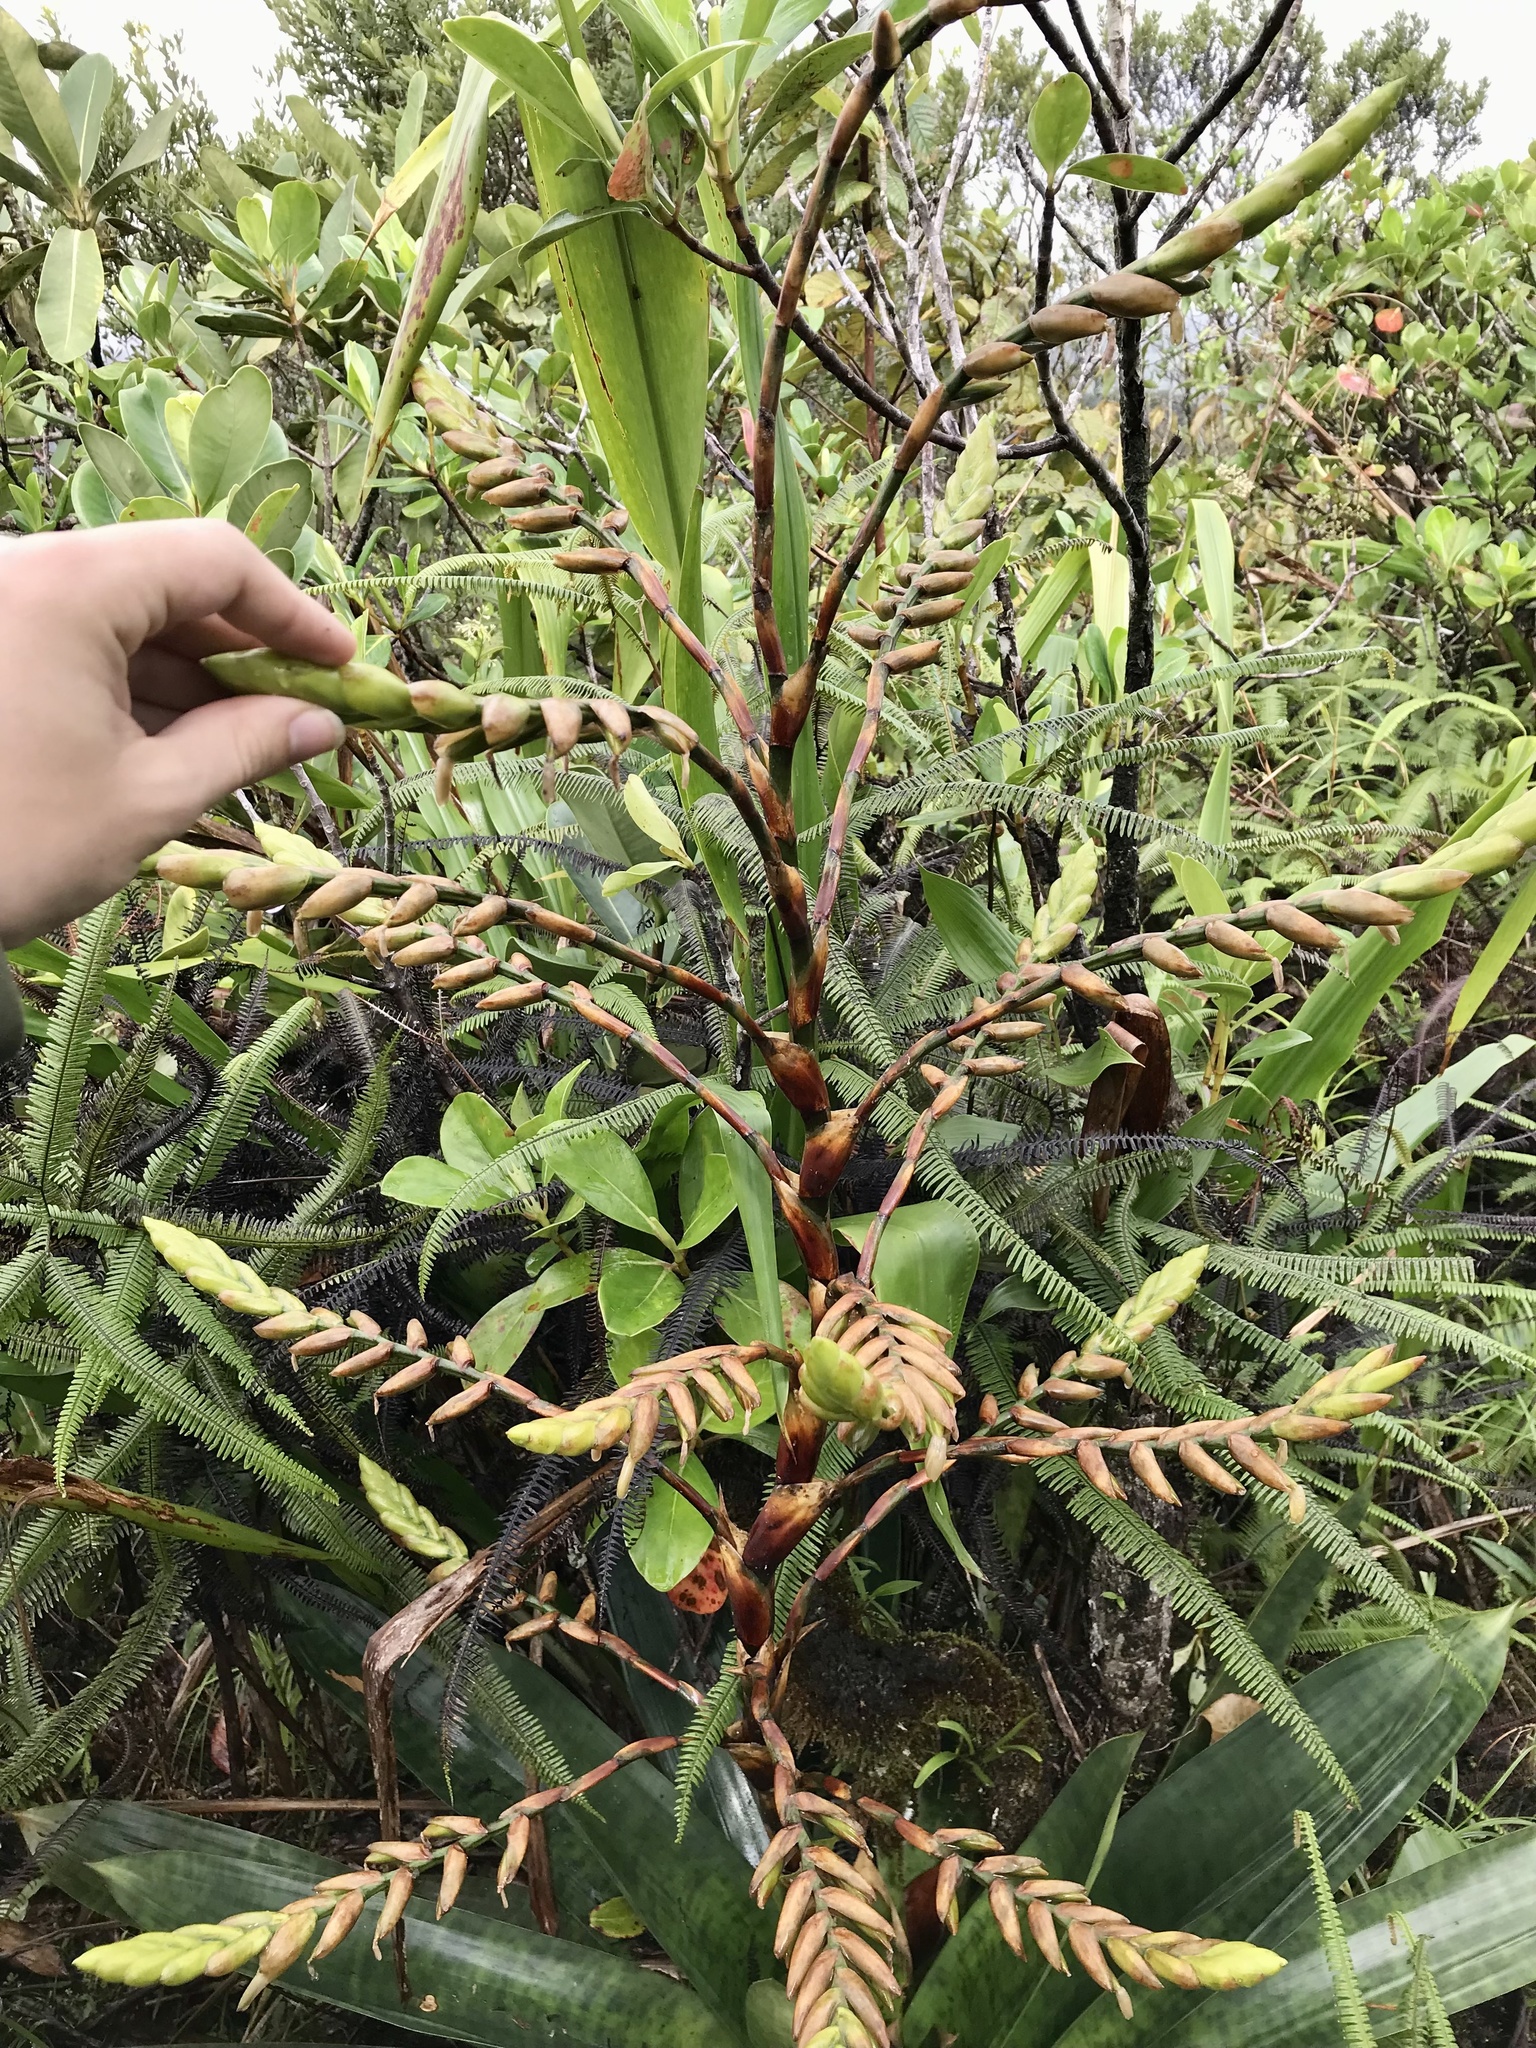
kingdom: Plantae
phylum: Tracheophyta
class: Liliopsida
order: Poales
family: Bromeliaceae
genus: Werauhia
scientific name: Werauhia kupperiana
